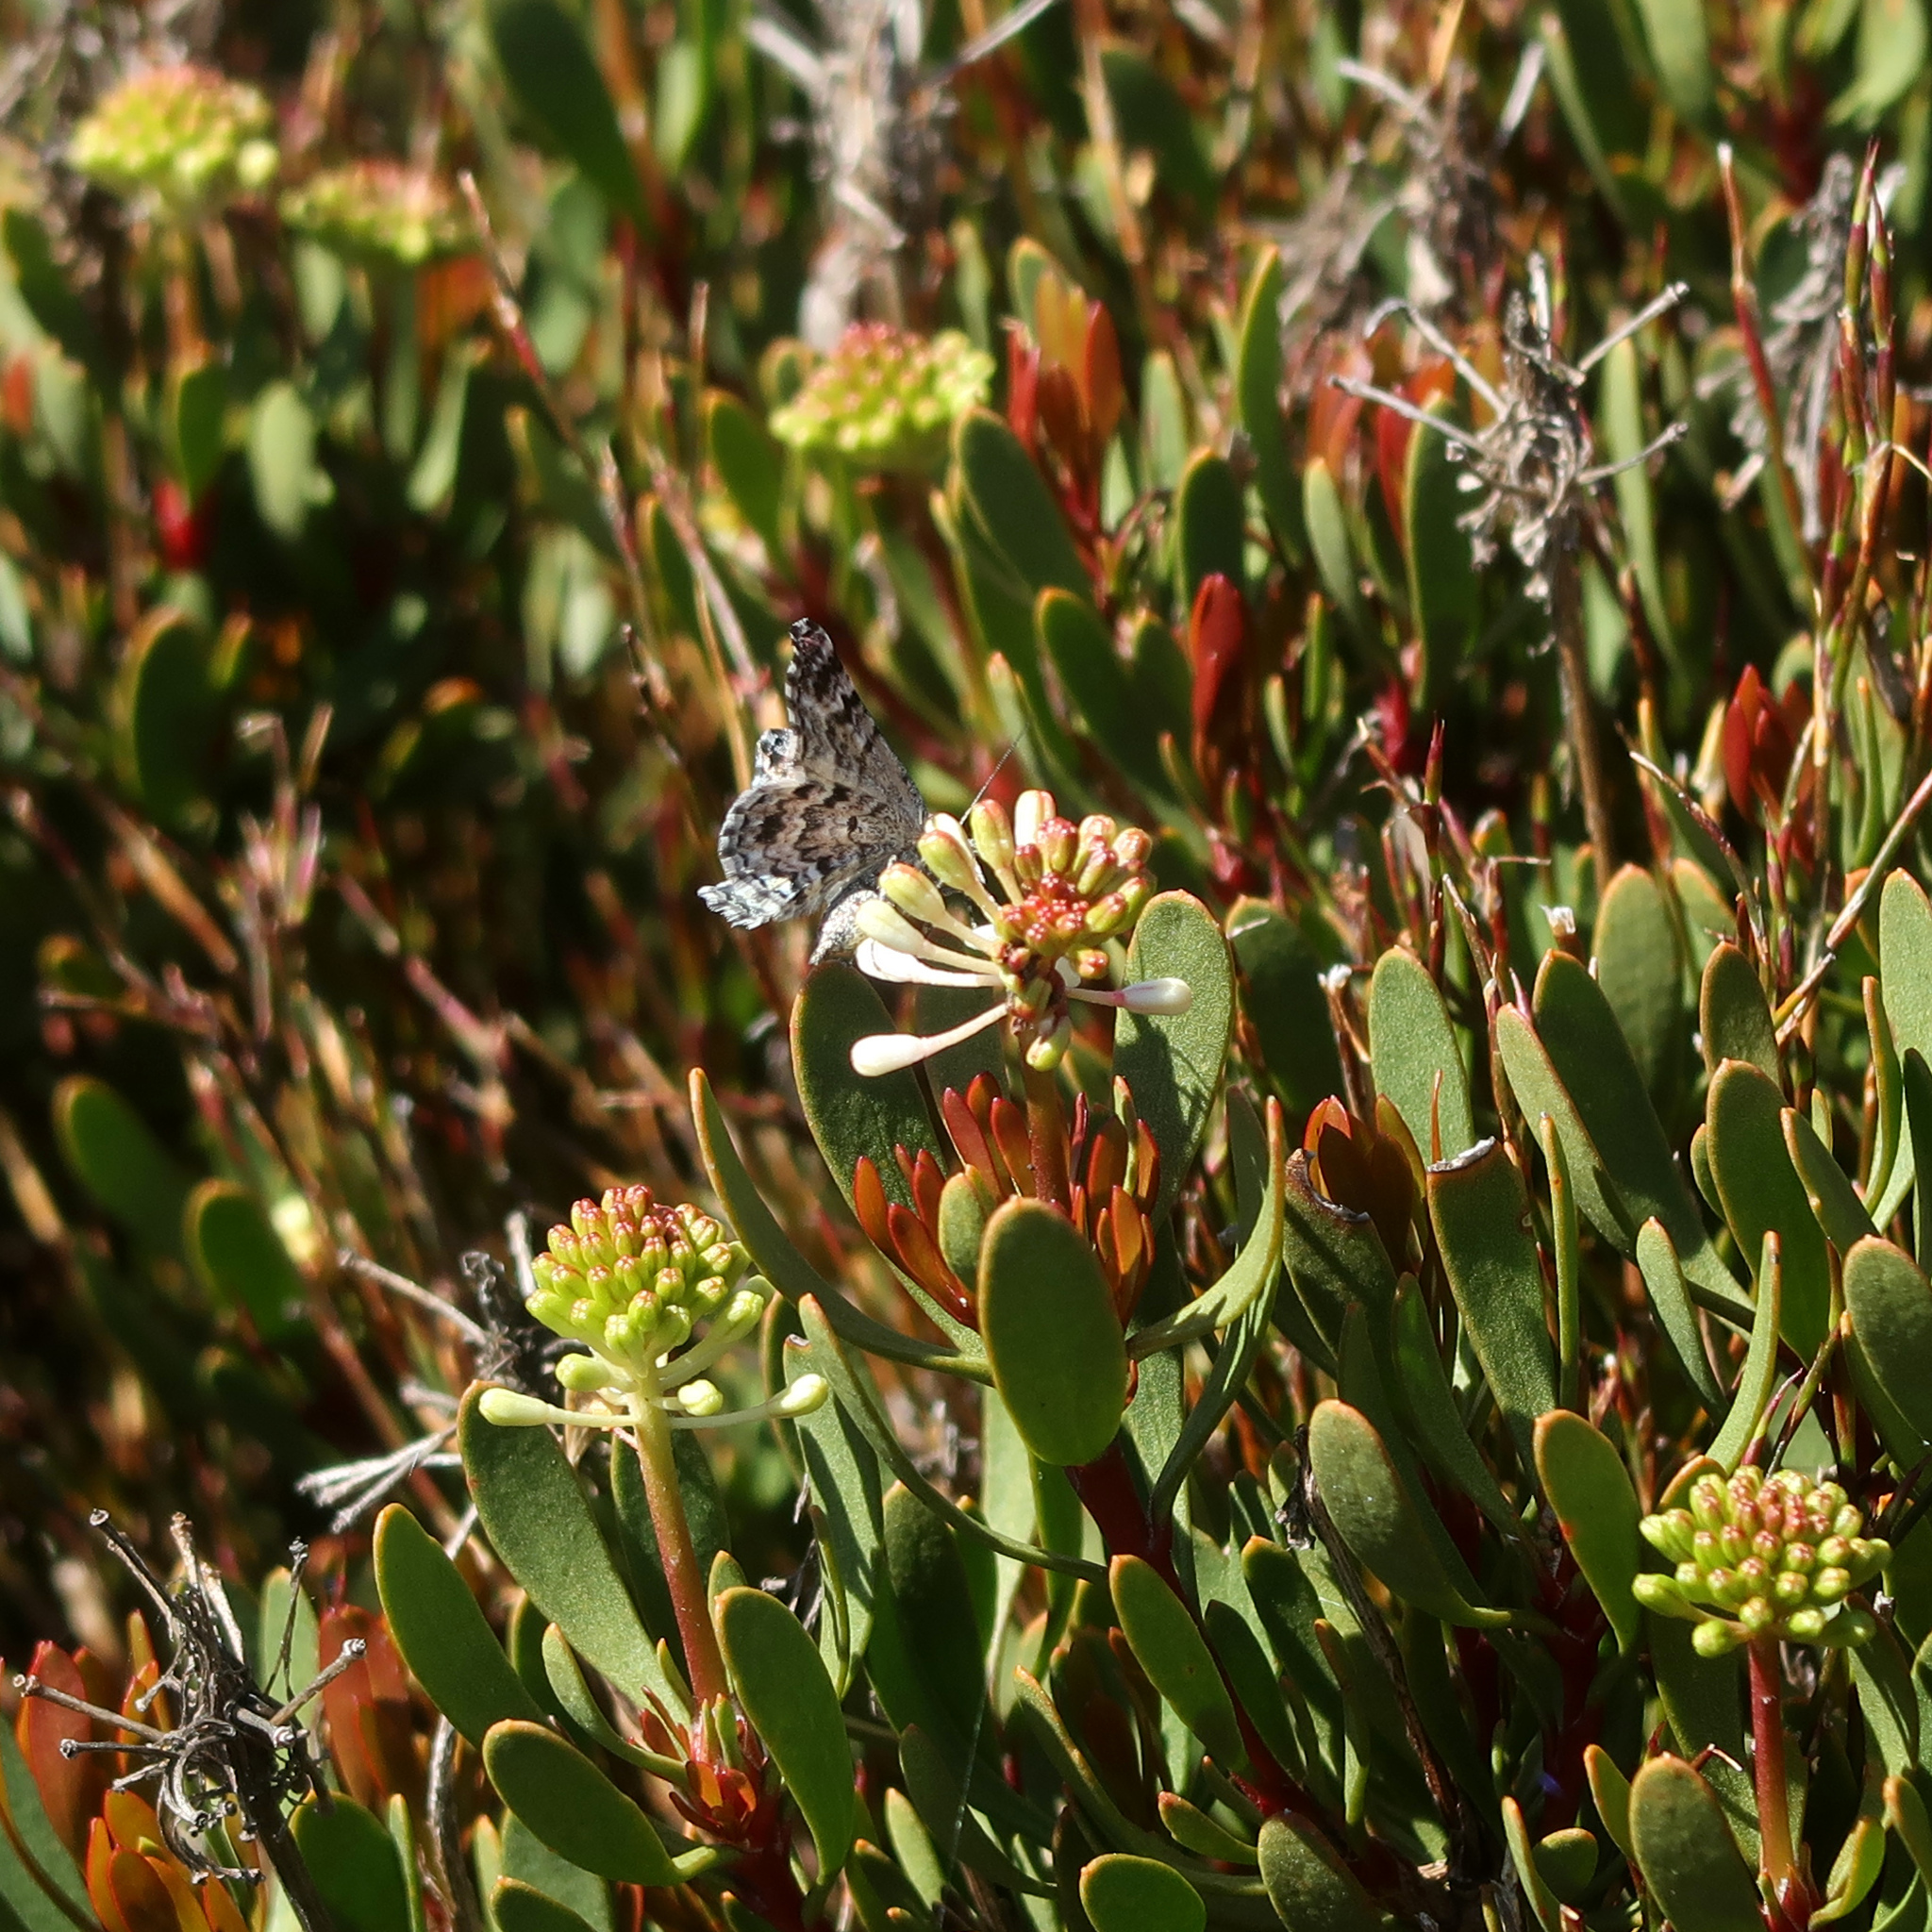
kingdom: Plantae
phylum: Tracheophyta
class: Magnoliopsida
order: Proteales
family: Proteaceae
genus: Bellendena
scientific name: Bellendena montana
